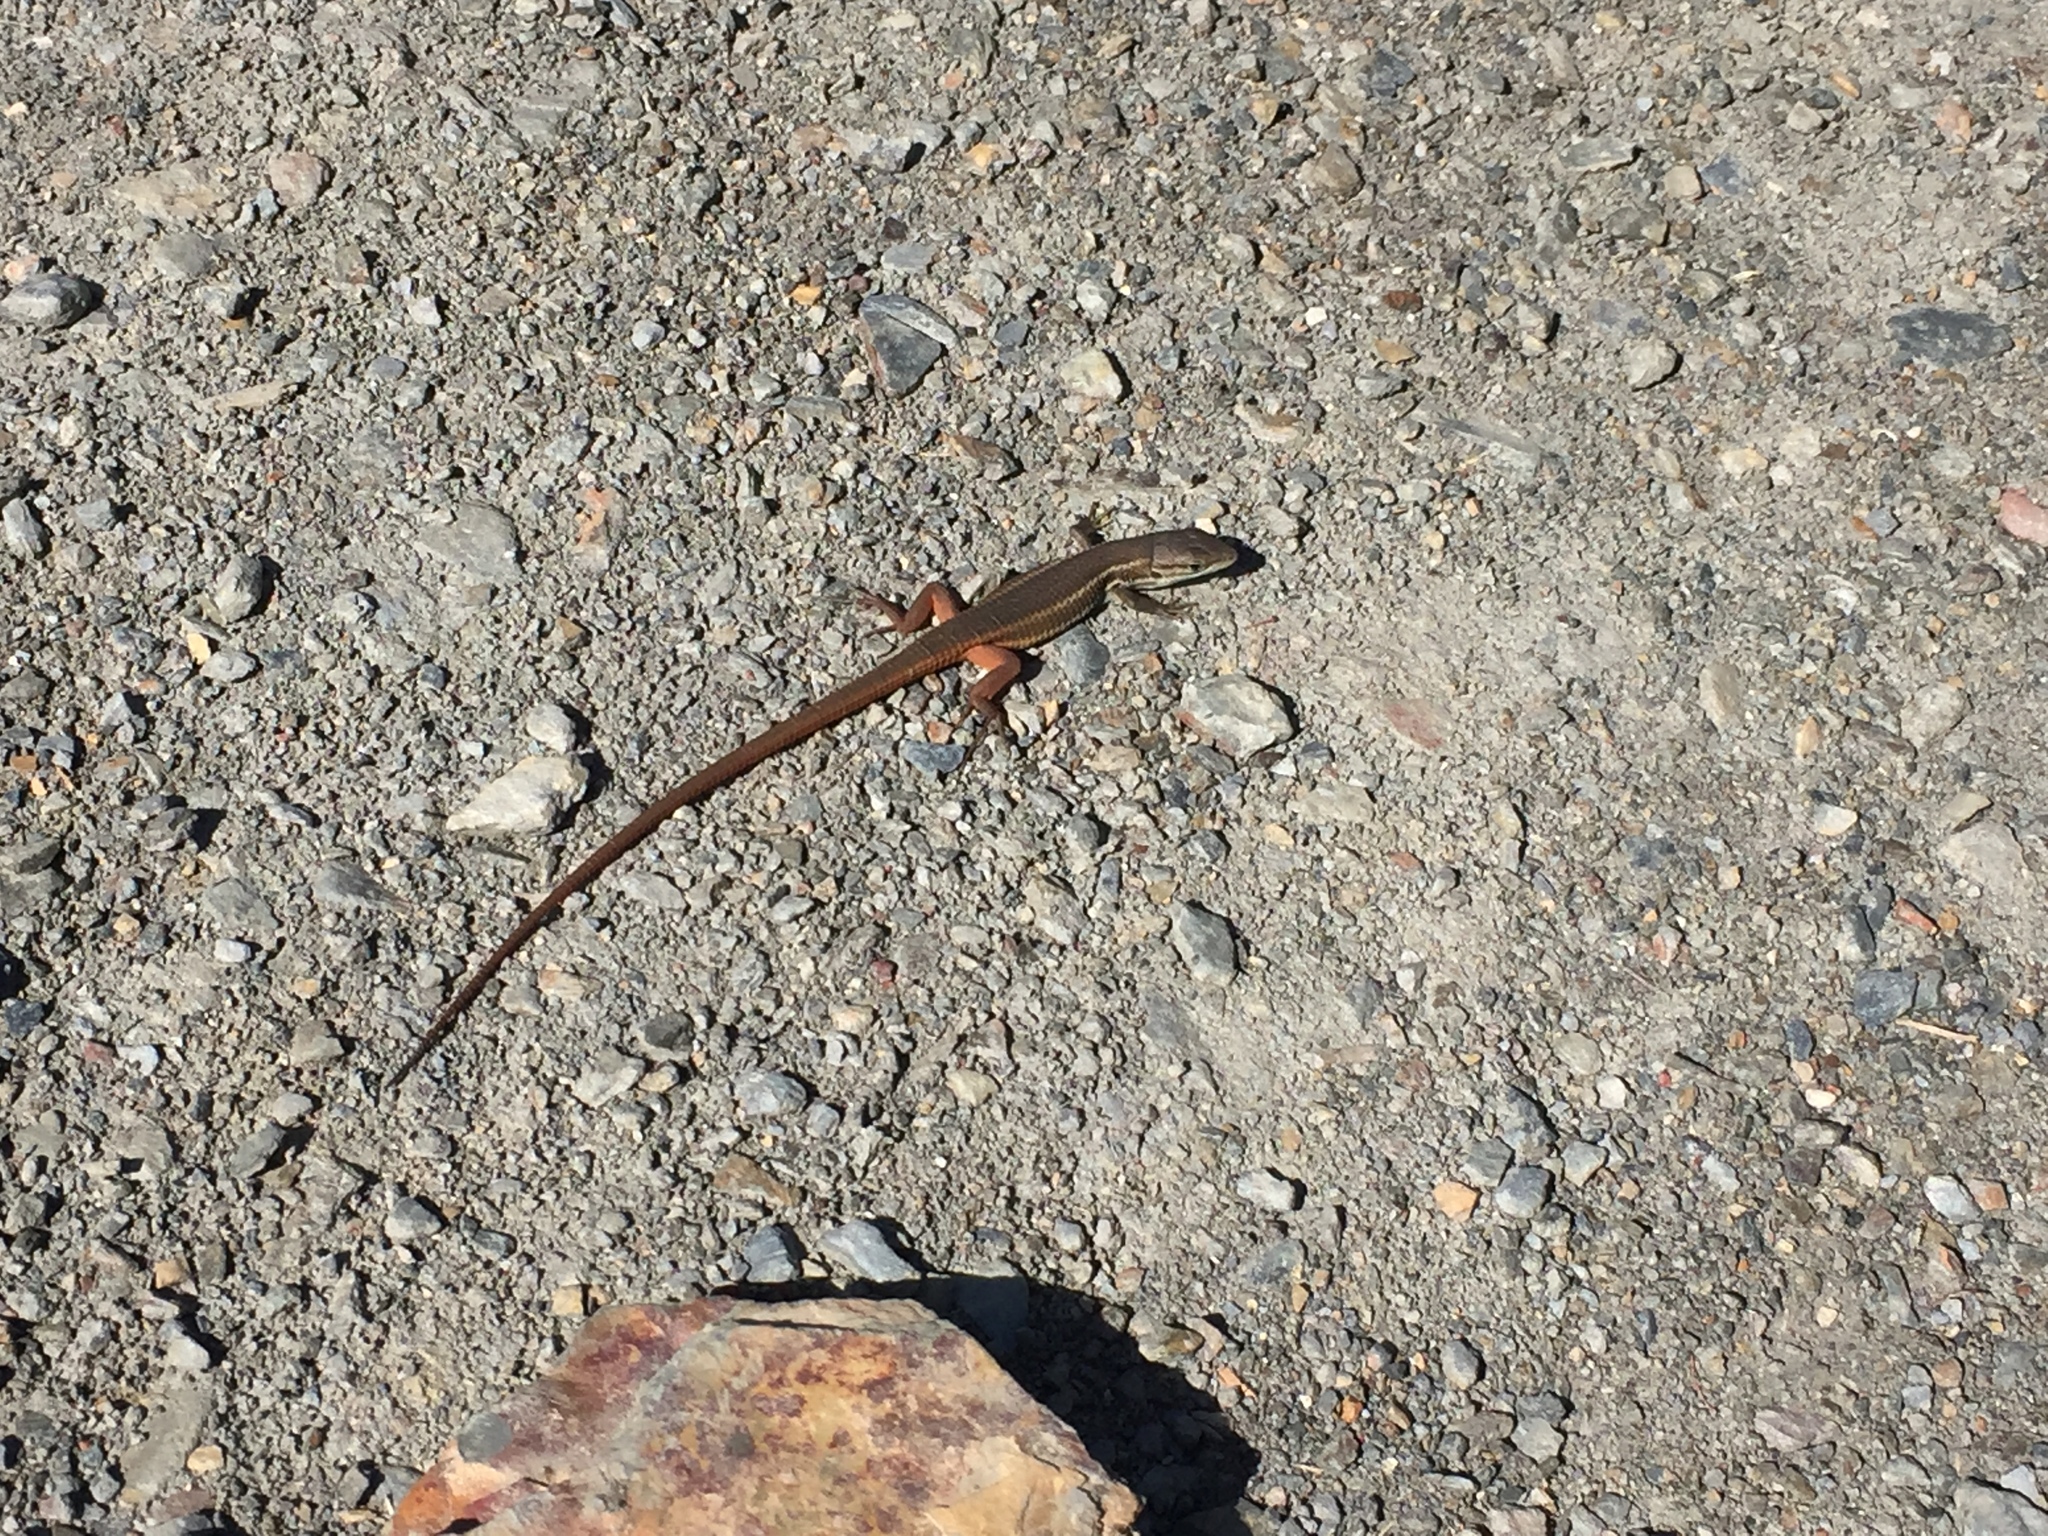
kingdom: Animalia
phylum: Chordata
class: Squamata
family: Lacertidae
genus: Psammodromus
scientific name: Psammodromus algirus
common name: Algerian psammodromus
